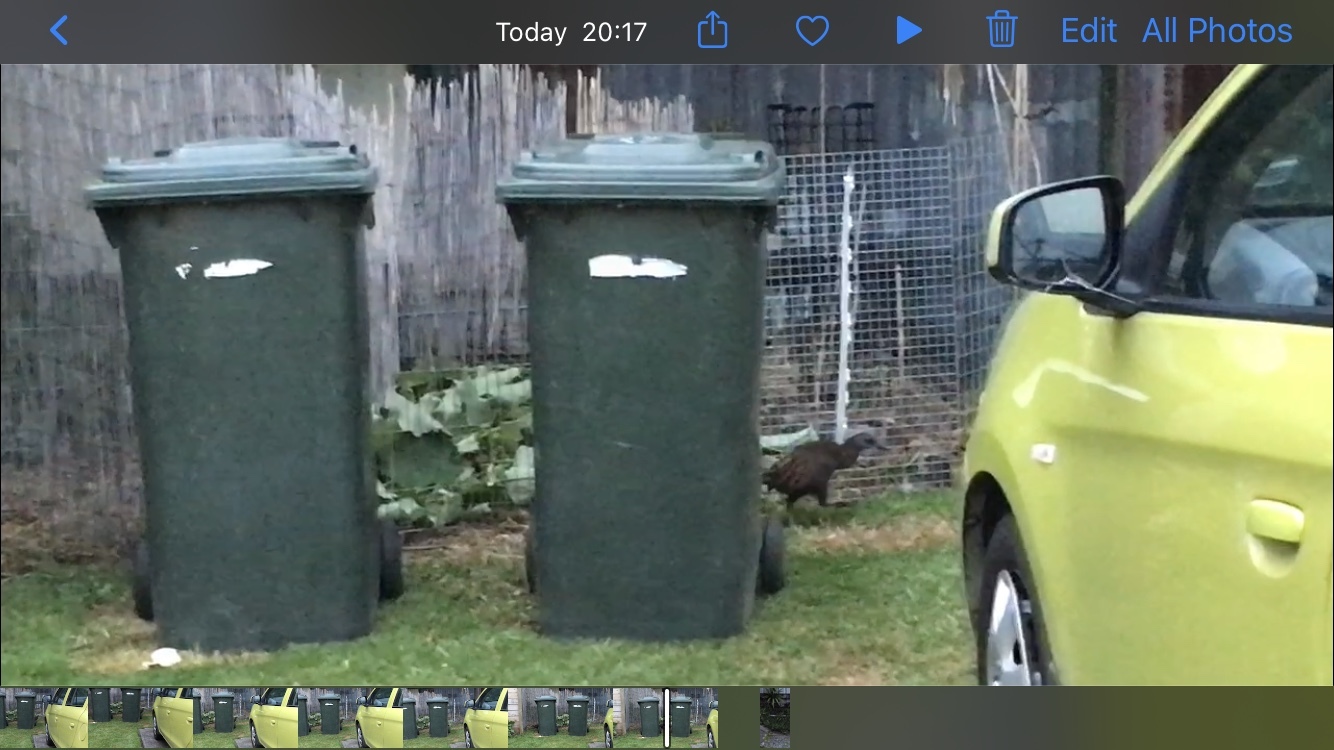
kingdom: Animalia
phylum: Chordata
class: Aves
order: Gruiformes
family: Rallidae
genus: Gallirallus
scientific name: Gallirallus australis
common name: Weka
